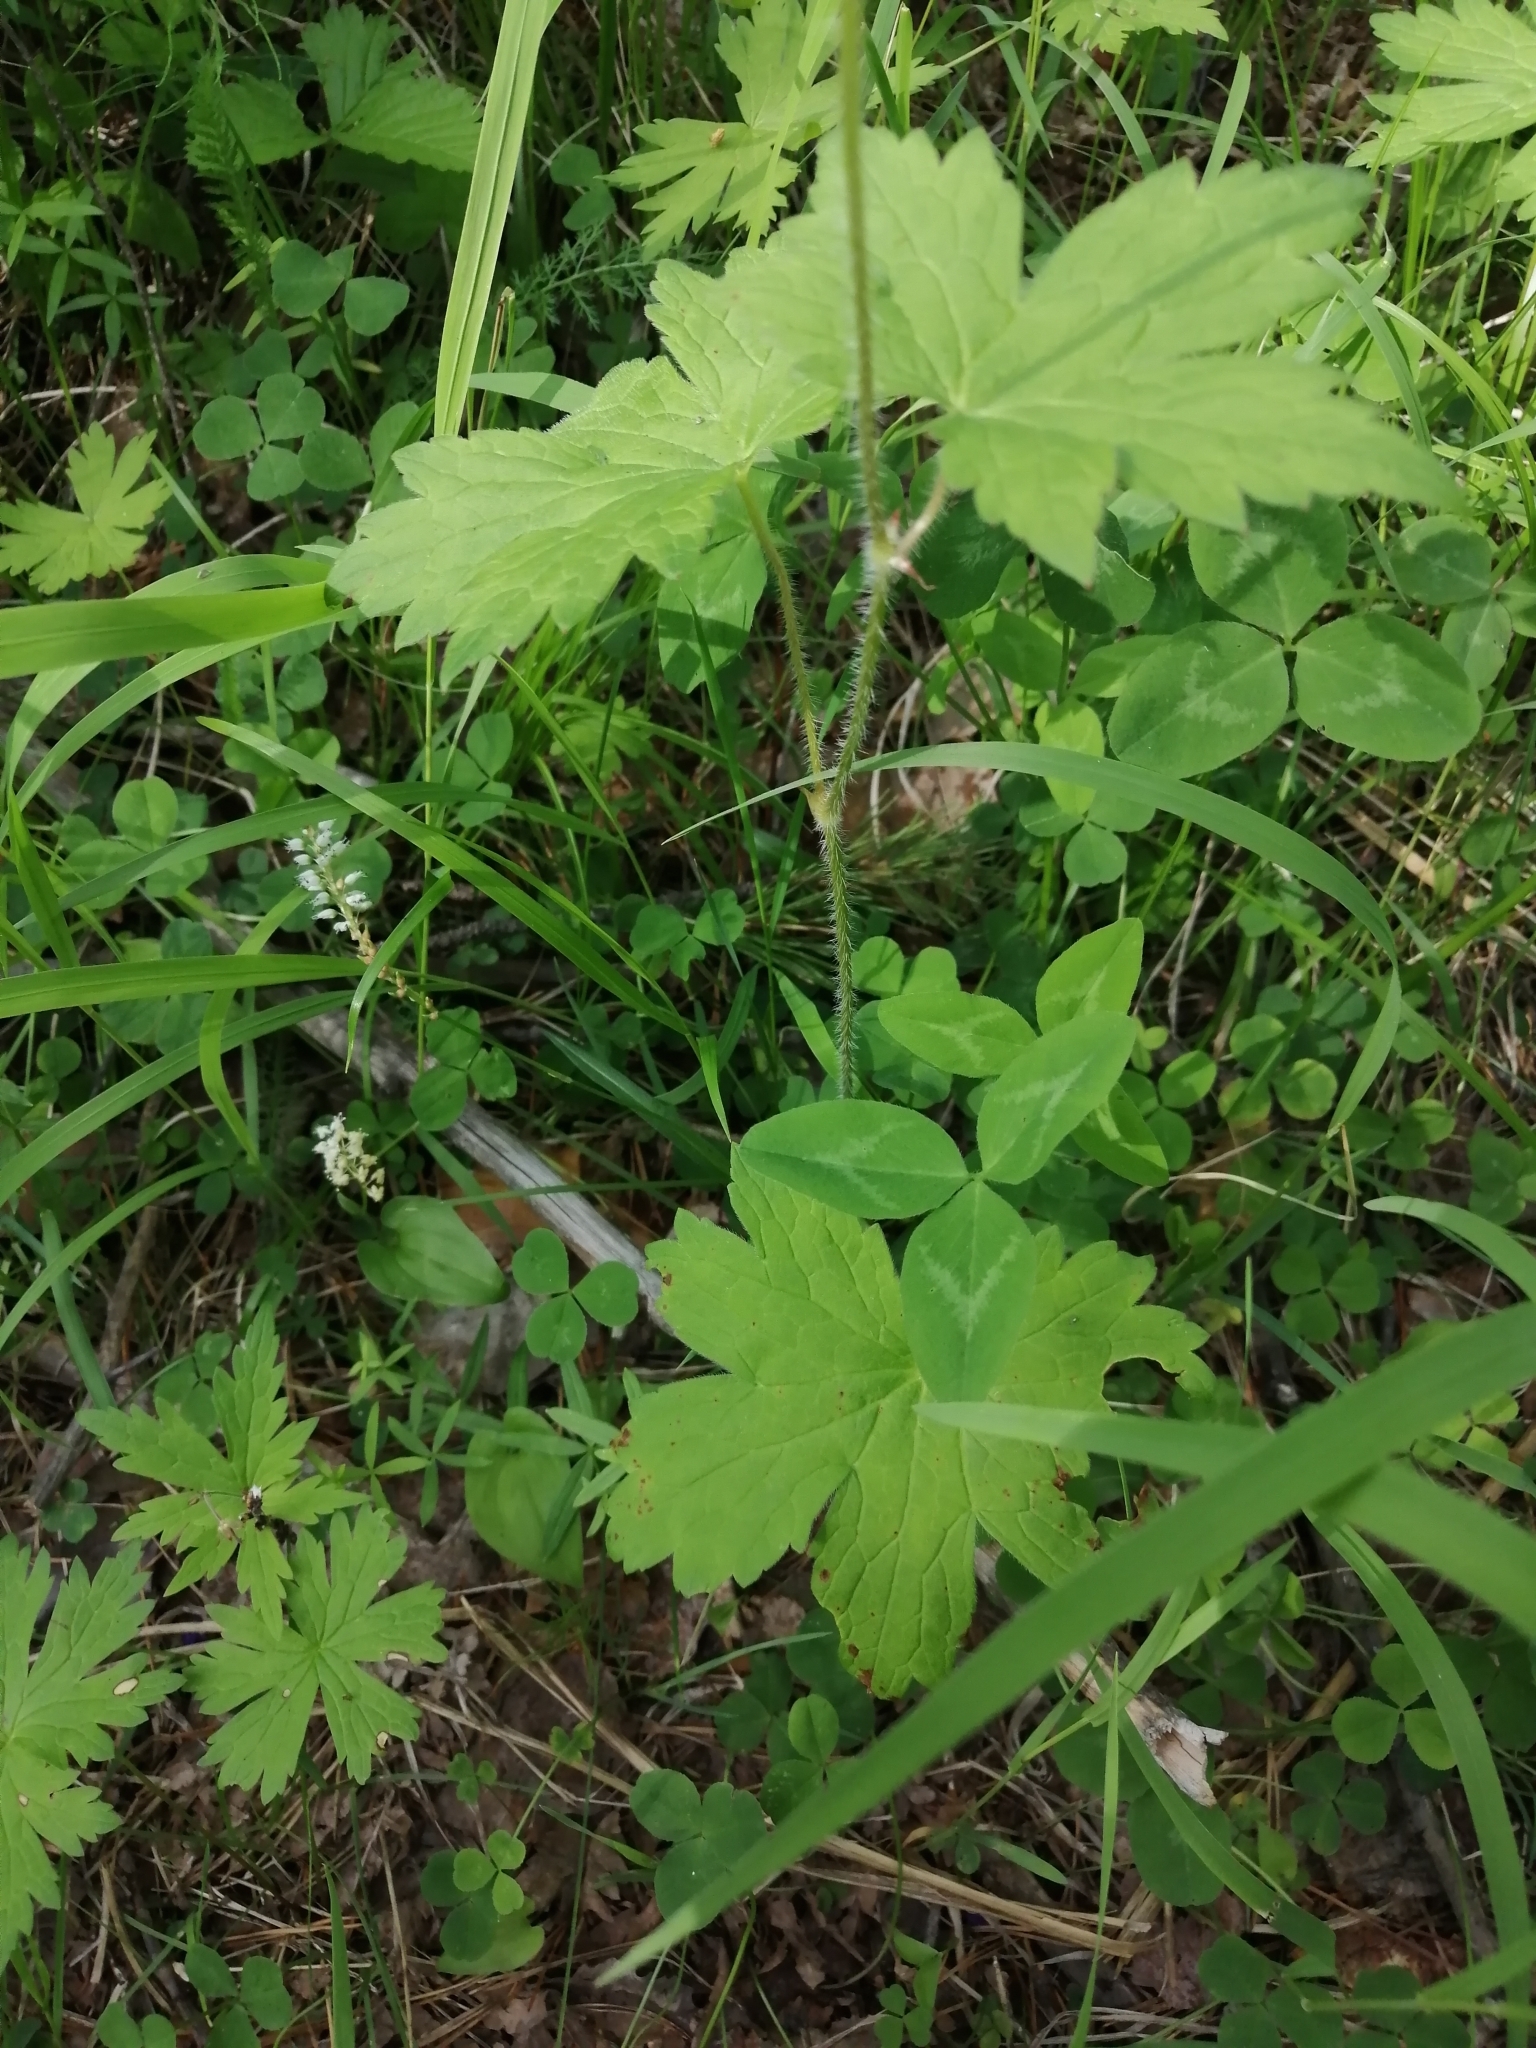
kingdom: Plantae
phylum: Tracheophyta
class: Magnoliopsida
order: Geraniales
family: Geraniaceae
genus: Geranium
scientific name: Geranium platyanthum
